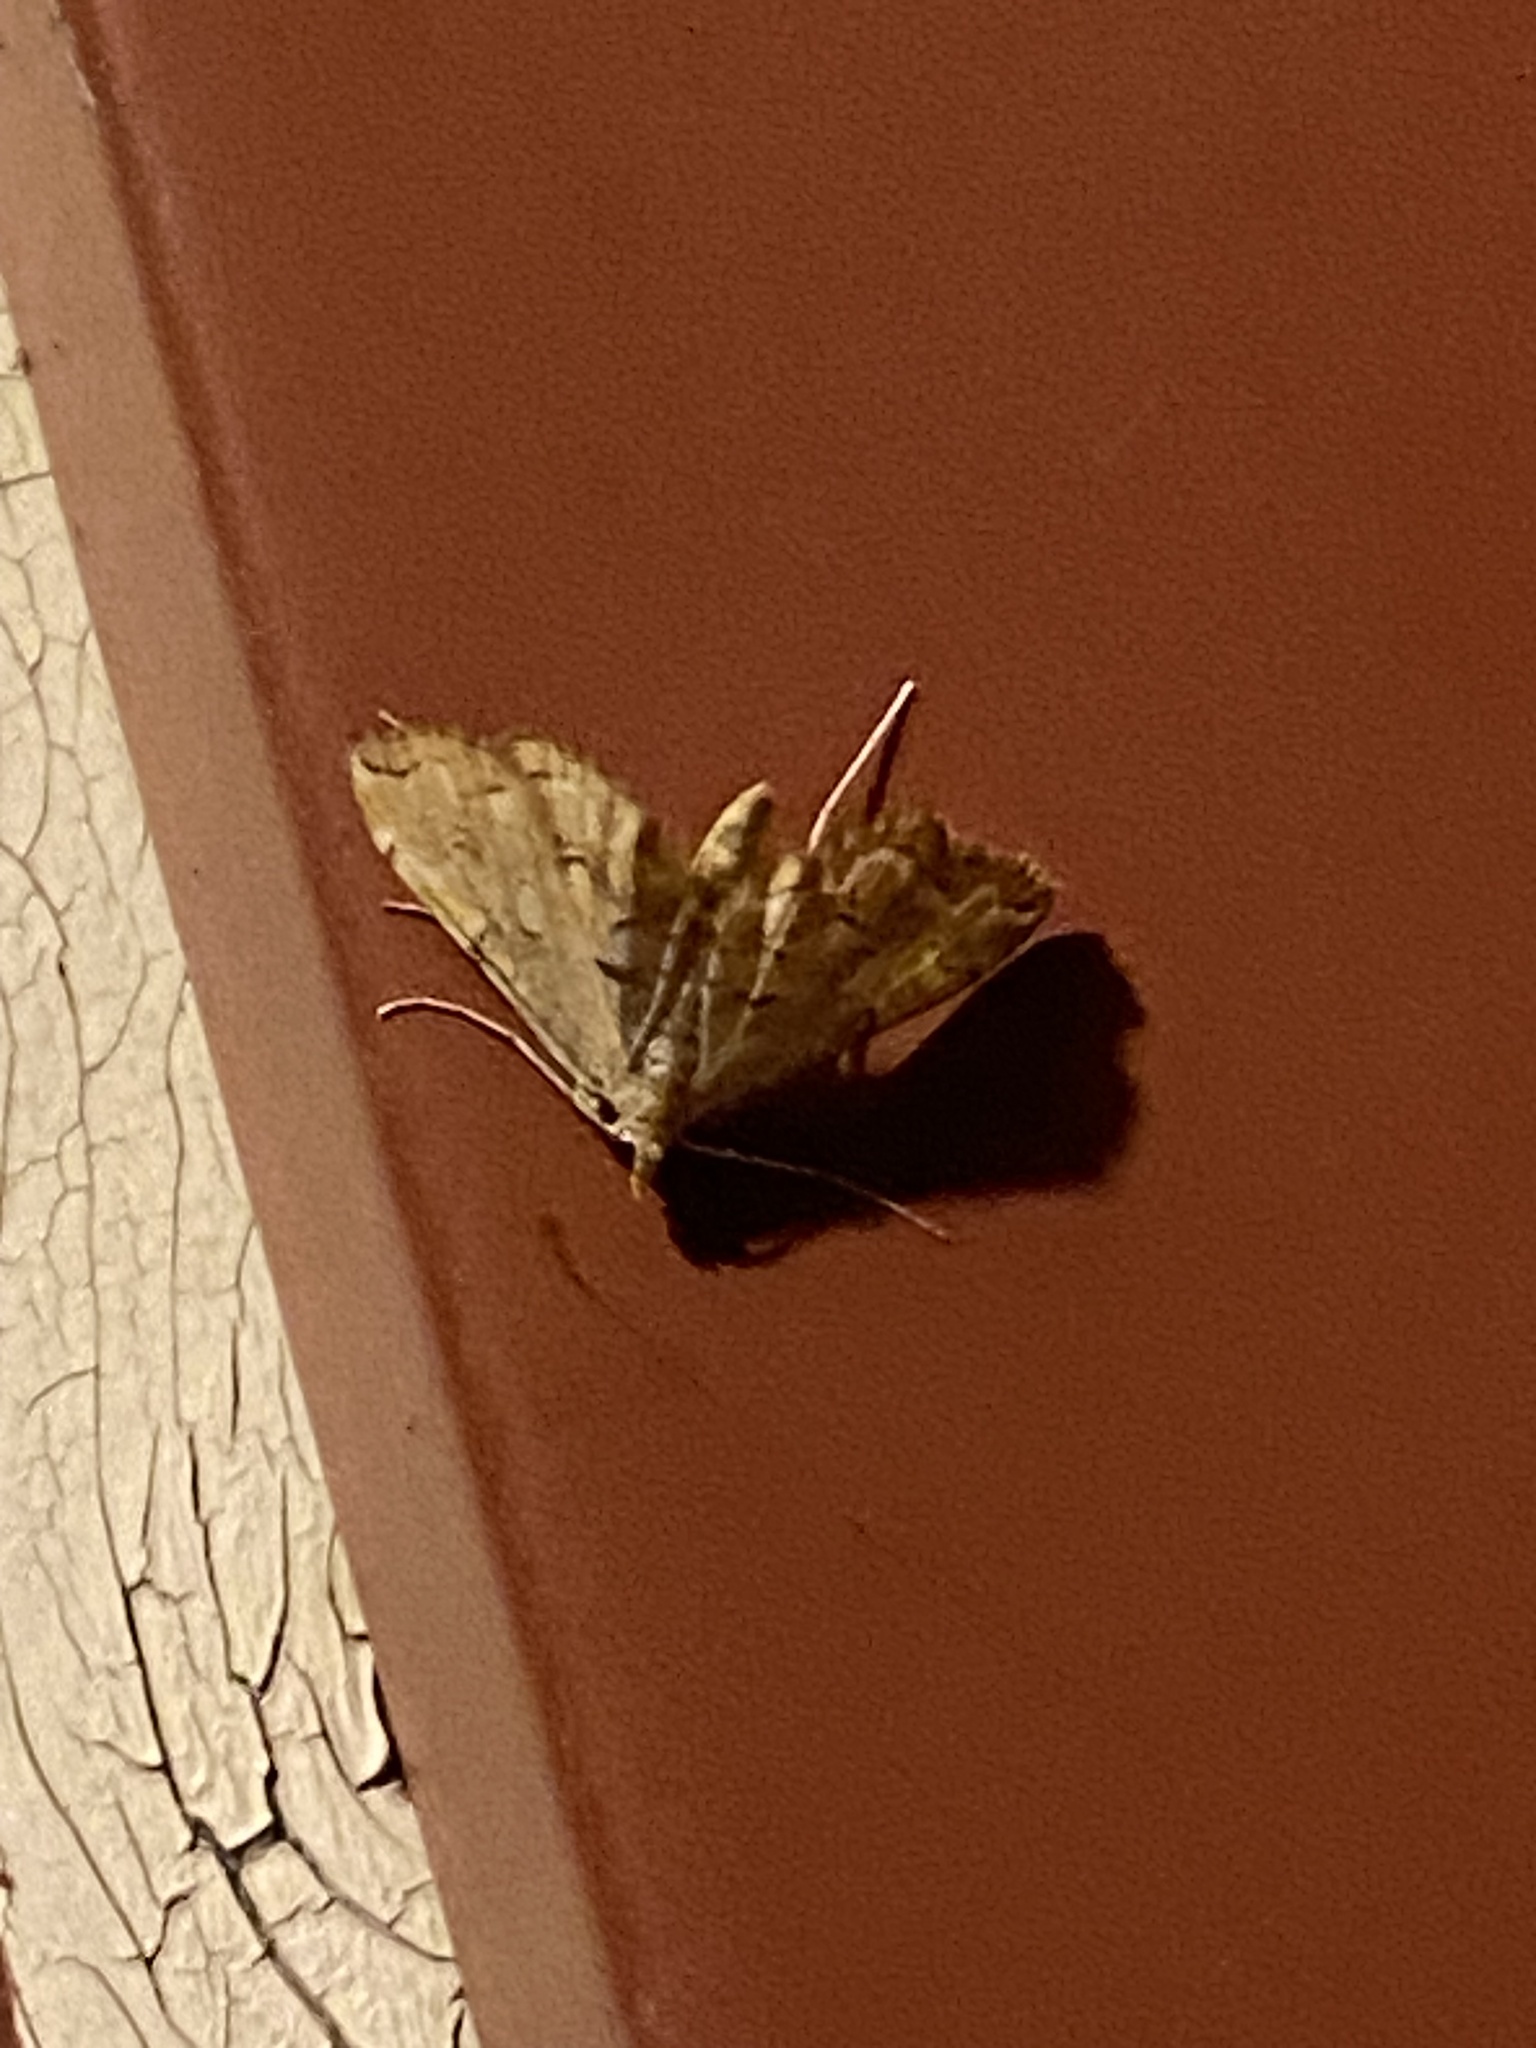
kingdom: Animalia
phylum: Arthropoda
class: Insecta
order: Lepidoptera
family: Crambidae
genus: Elophila
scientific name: Elophila icciusalis
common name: Pondside pyralid moth
